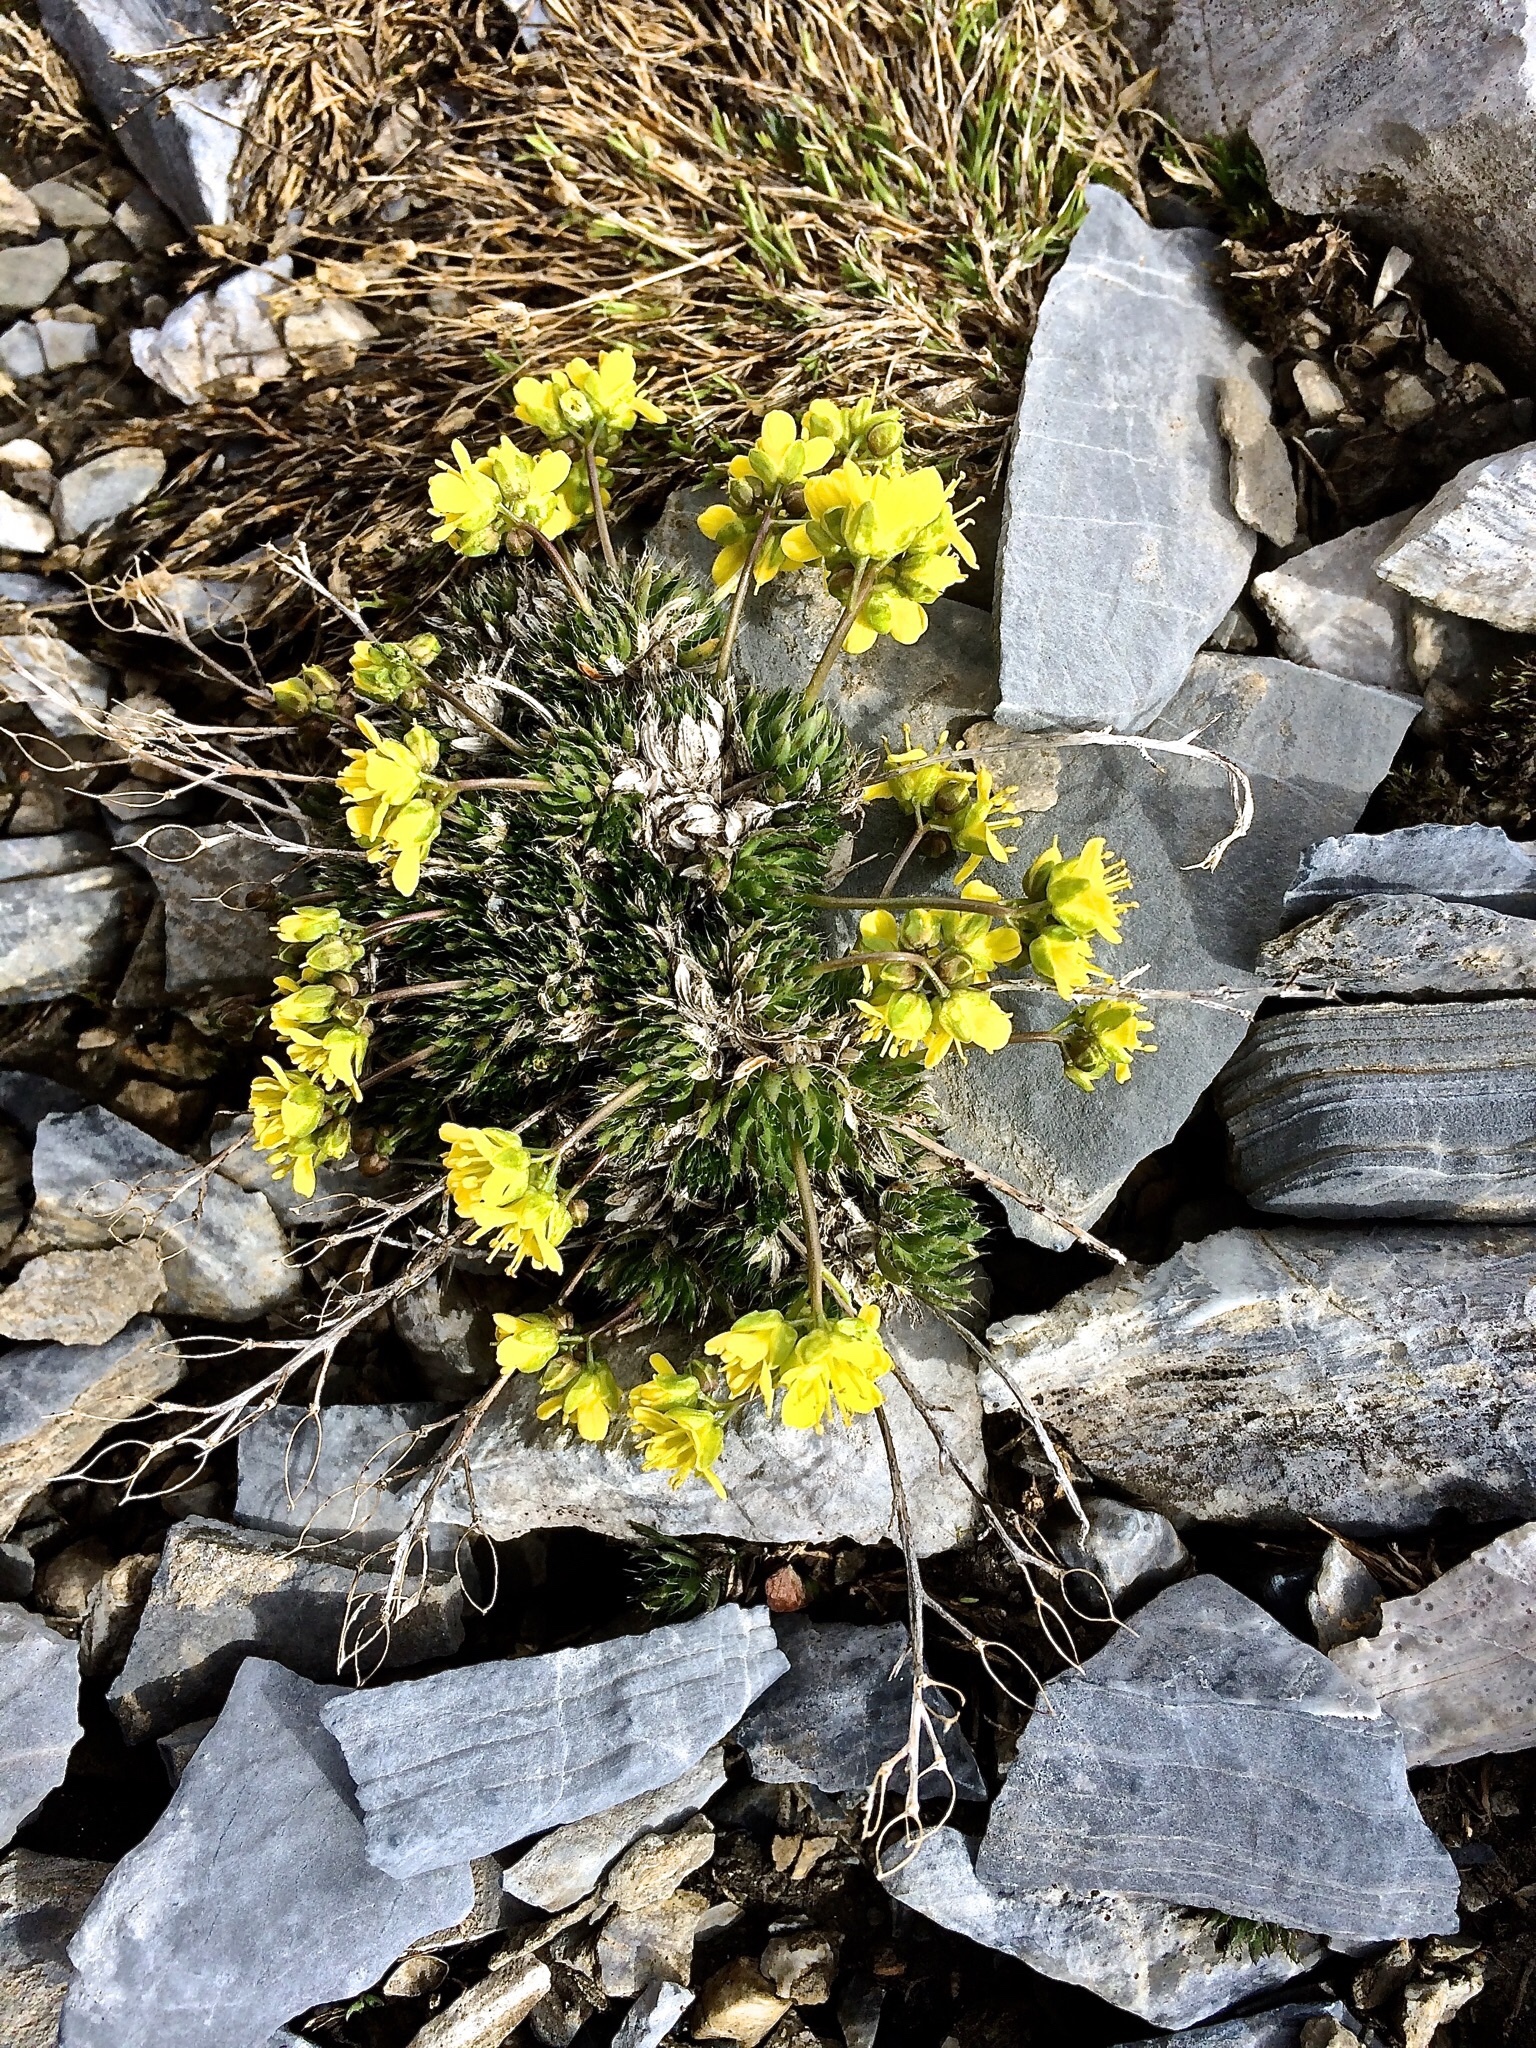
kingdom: Plantae
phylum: Tracheophyta
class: Magnoliopsida
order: Brassicales
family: Brassicaceae
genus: Draba
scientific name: Draba aizoides
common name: Yellow whitlowgrass
